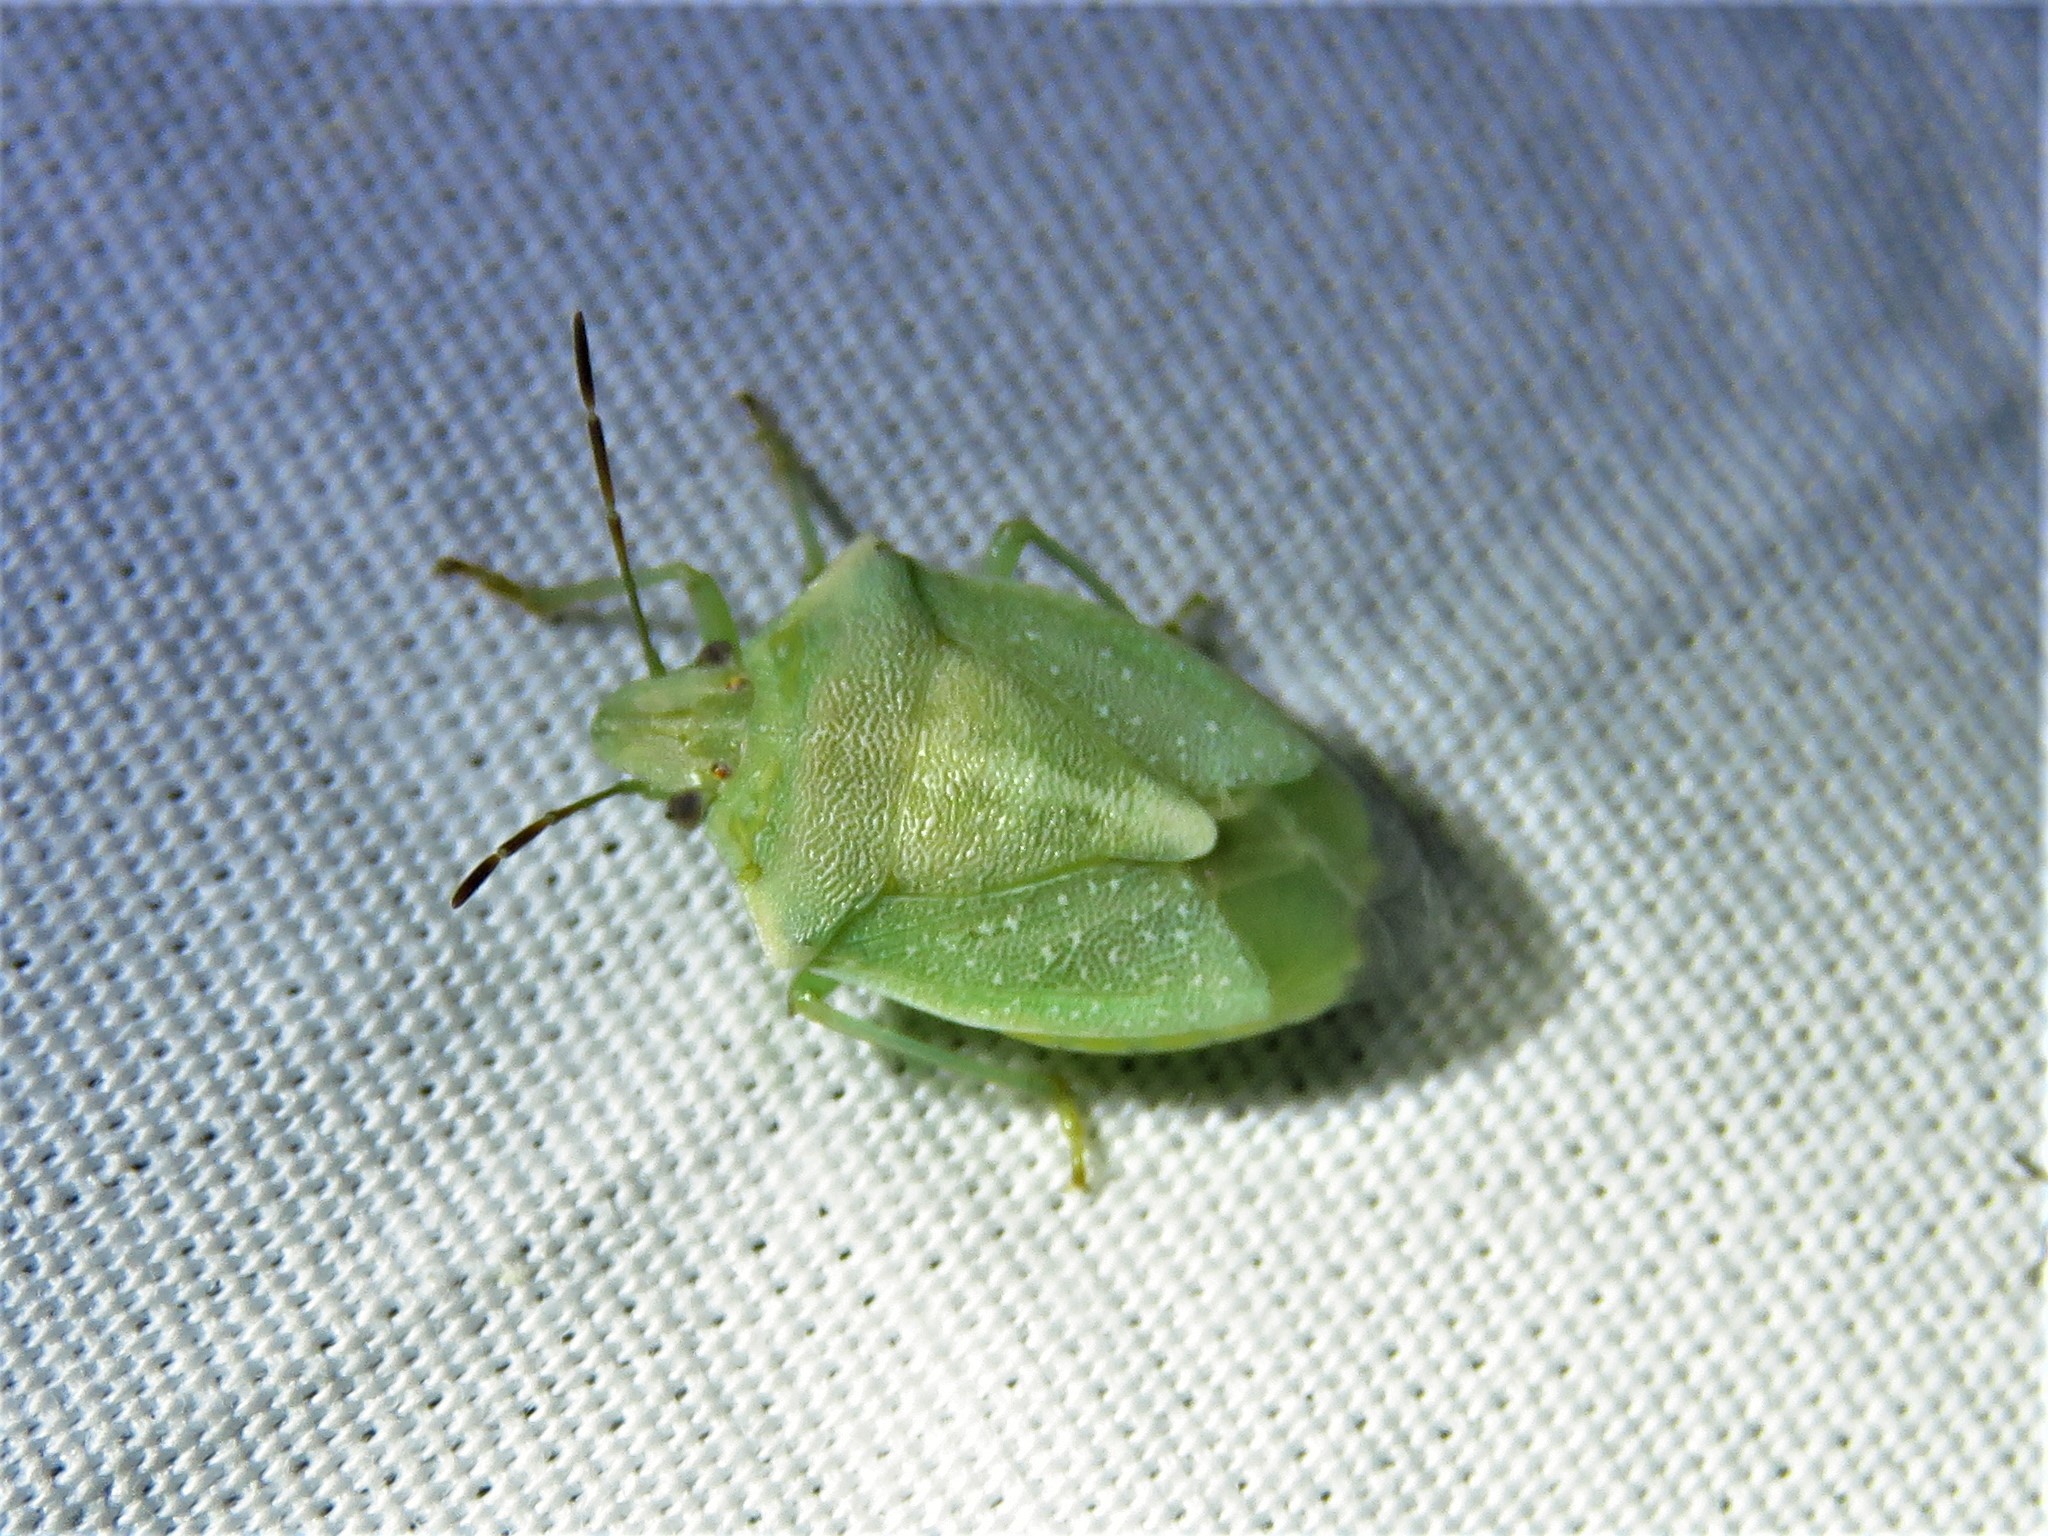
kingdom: Animalia
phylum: Arthropoda
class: Insecta
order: Hemiptera
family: Pentatomidae
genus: Thyanta
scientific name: Thyanta custator
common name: Stink bug
